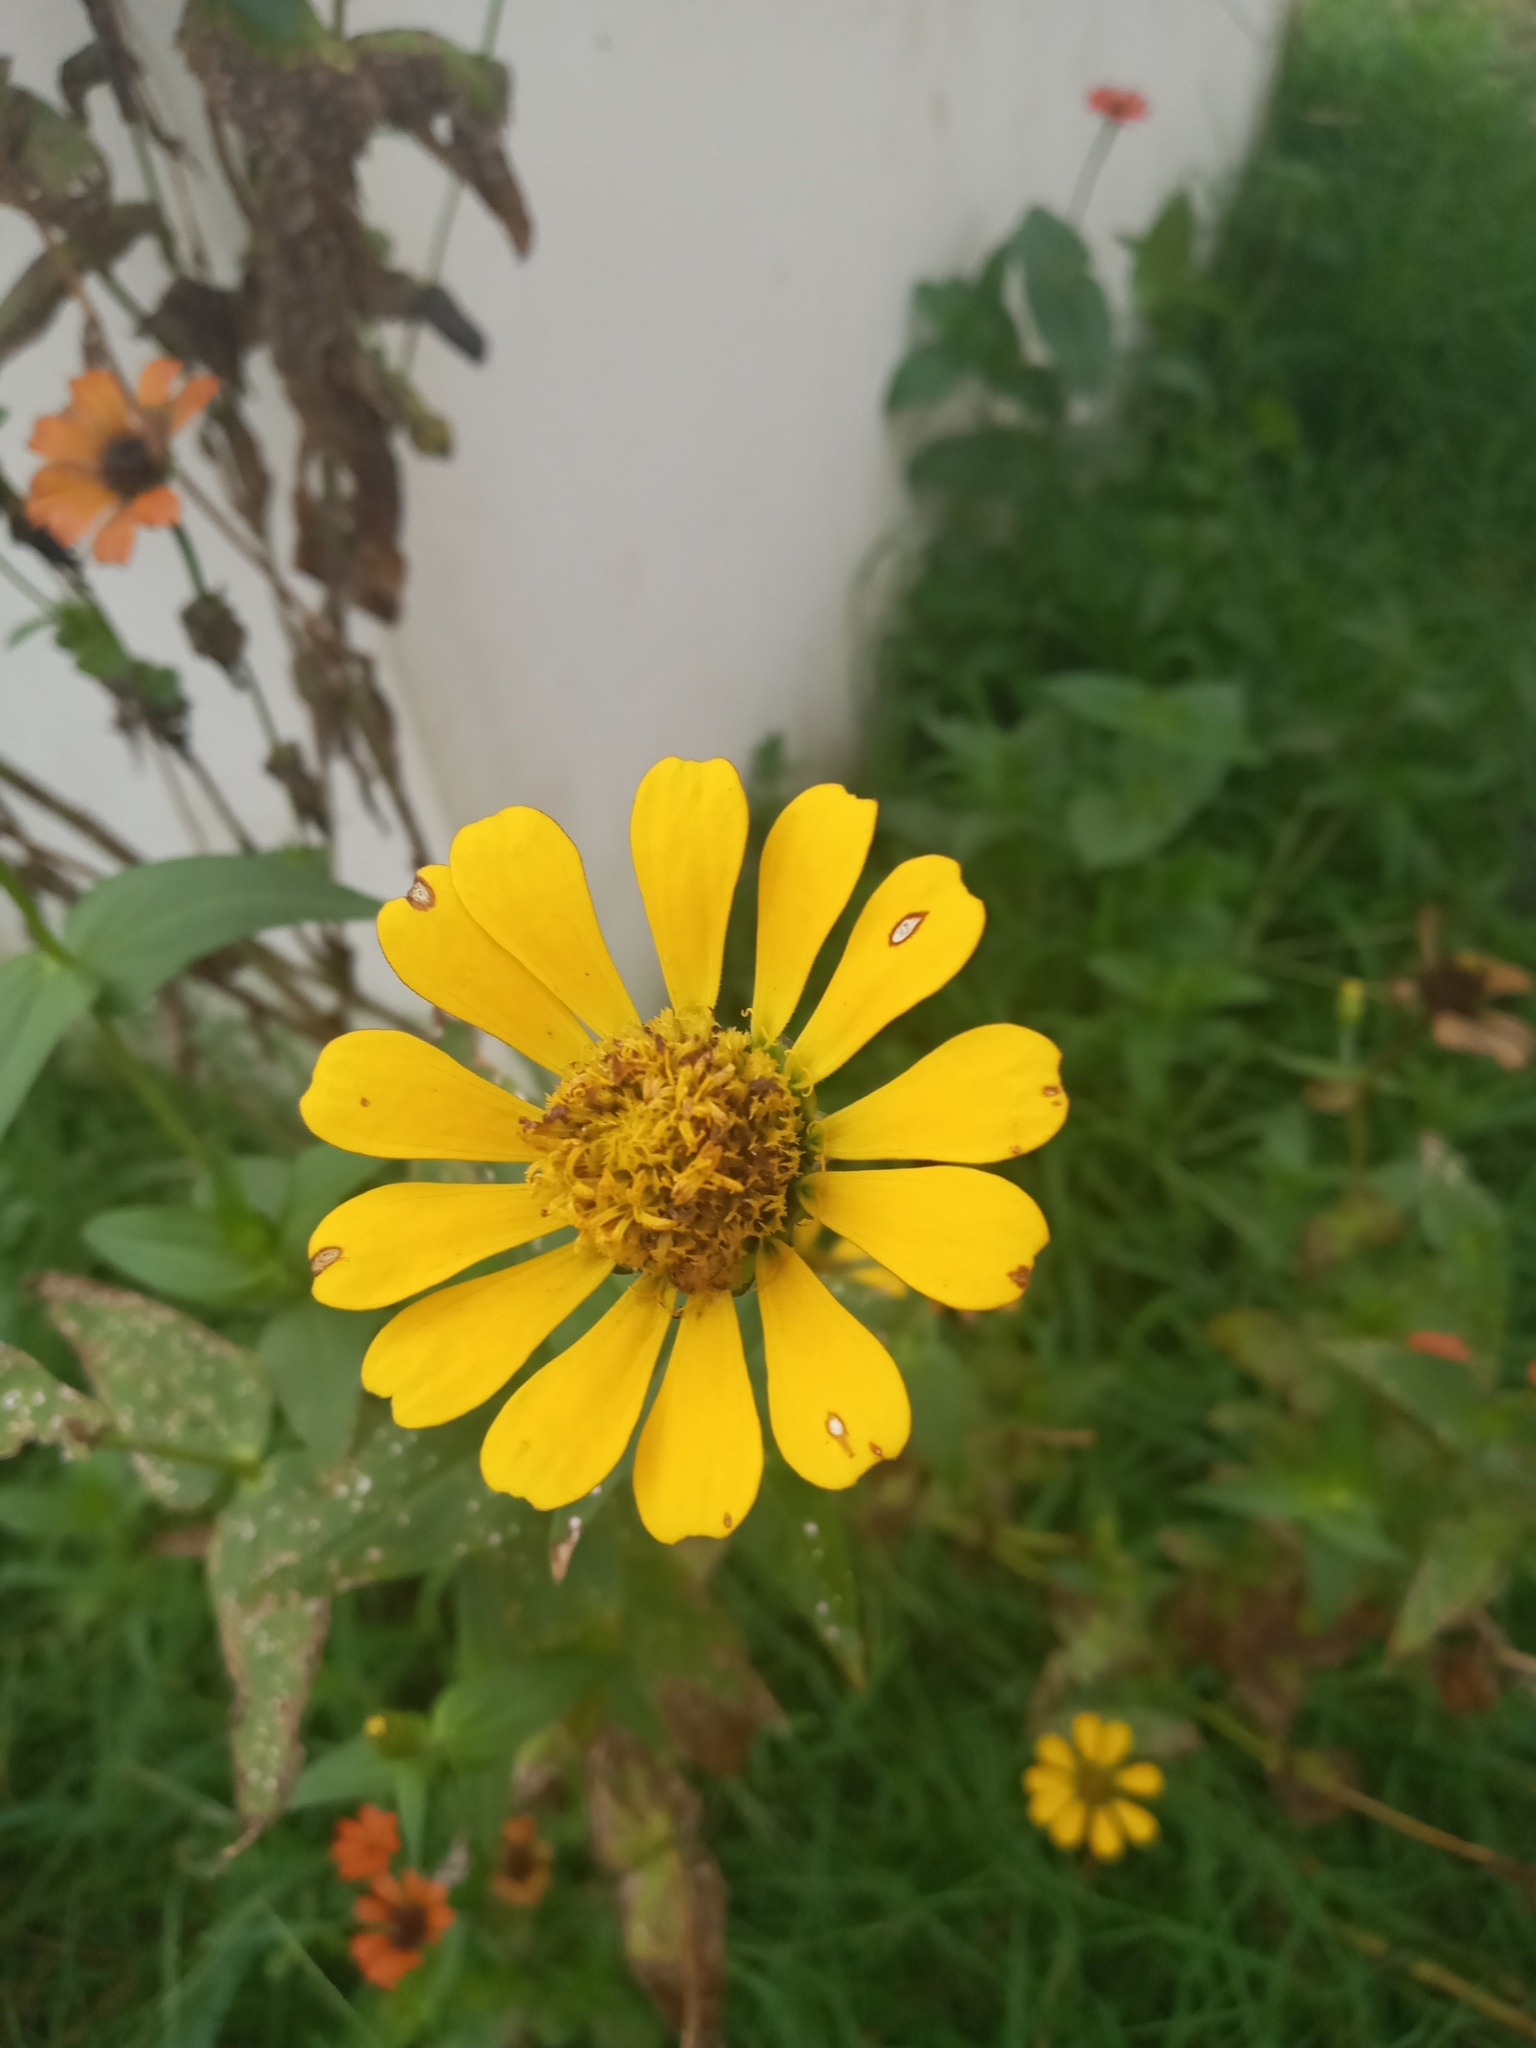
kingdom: Plantae
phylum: Tracheophyta
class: Magnoliopsida
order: Asterales
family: Asteraceae
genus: Zinnia
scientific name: Zinnia elegans
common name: Youth-and-age
